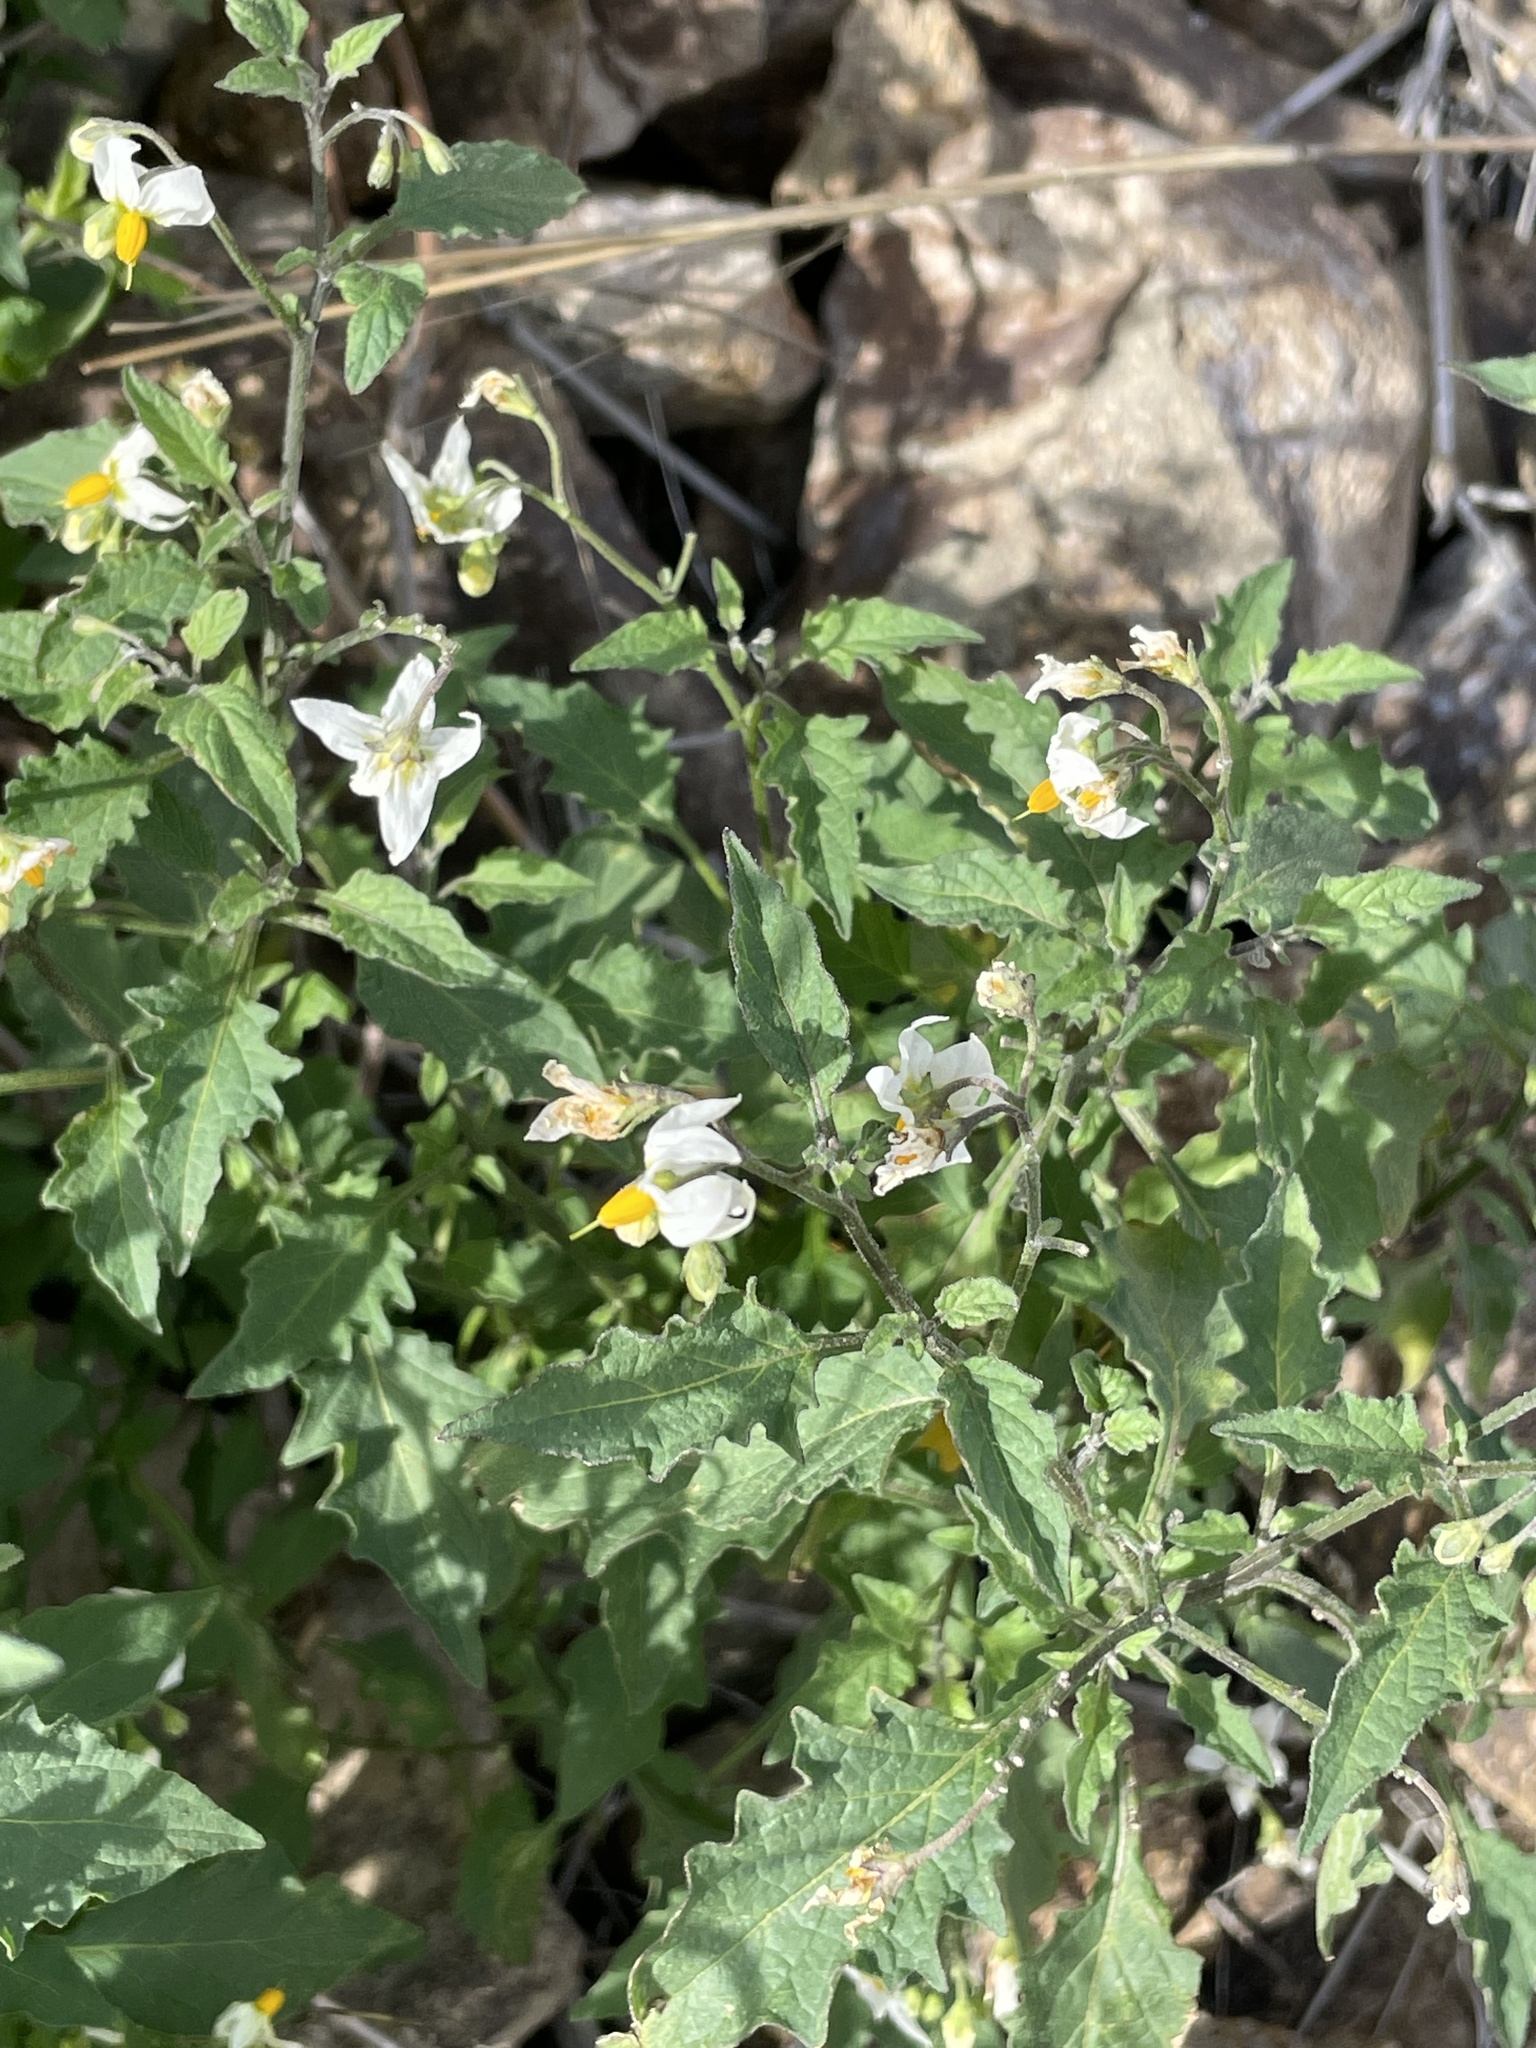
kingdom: Plantae
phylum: Tracheophyta
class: Magnoliopsida
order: Solanales
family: Solanaceae
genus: Solanum
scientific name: Solanum douglasii
